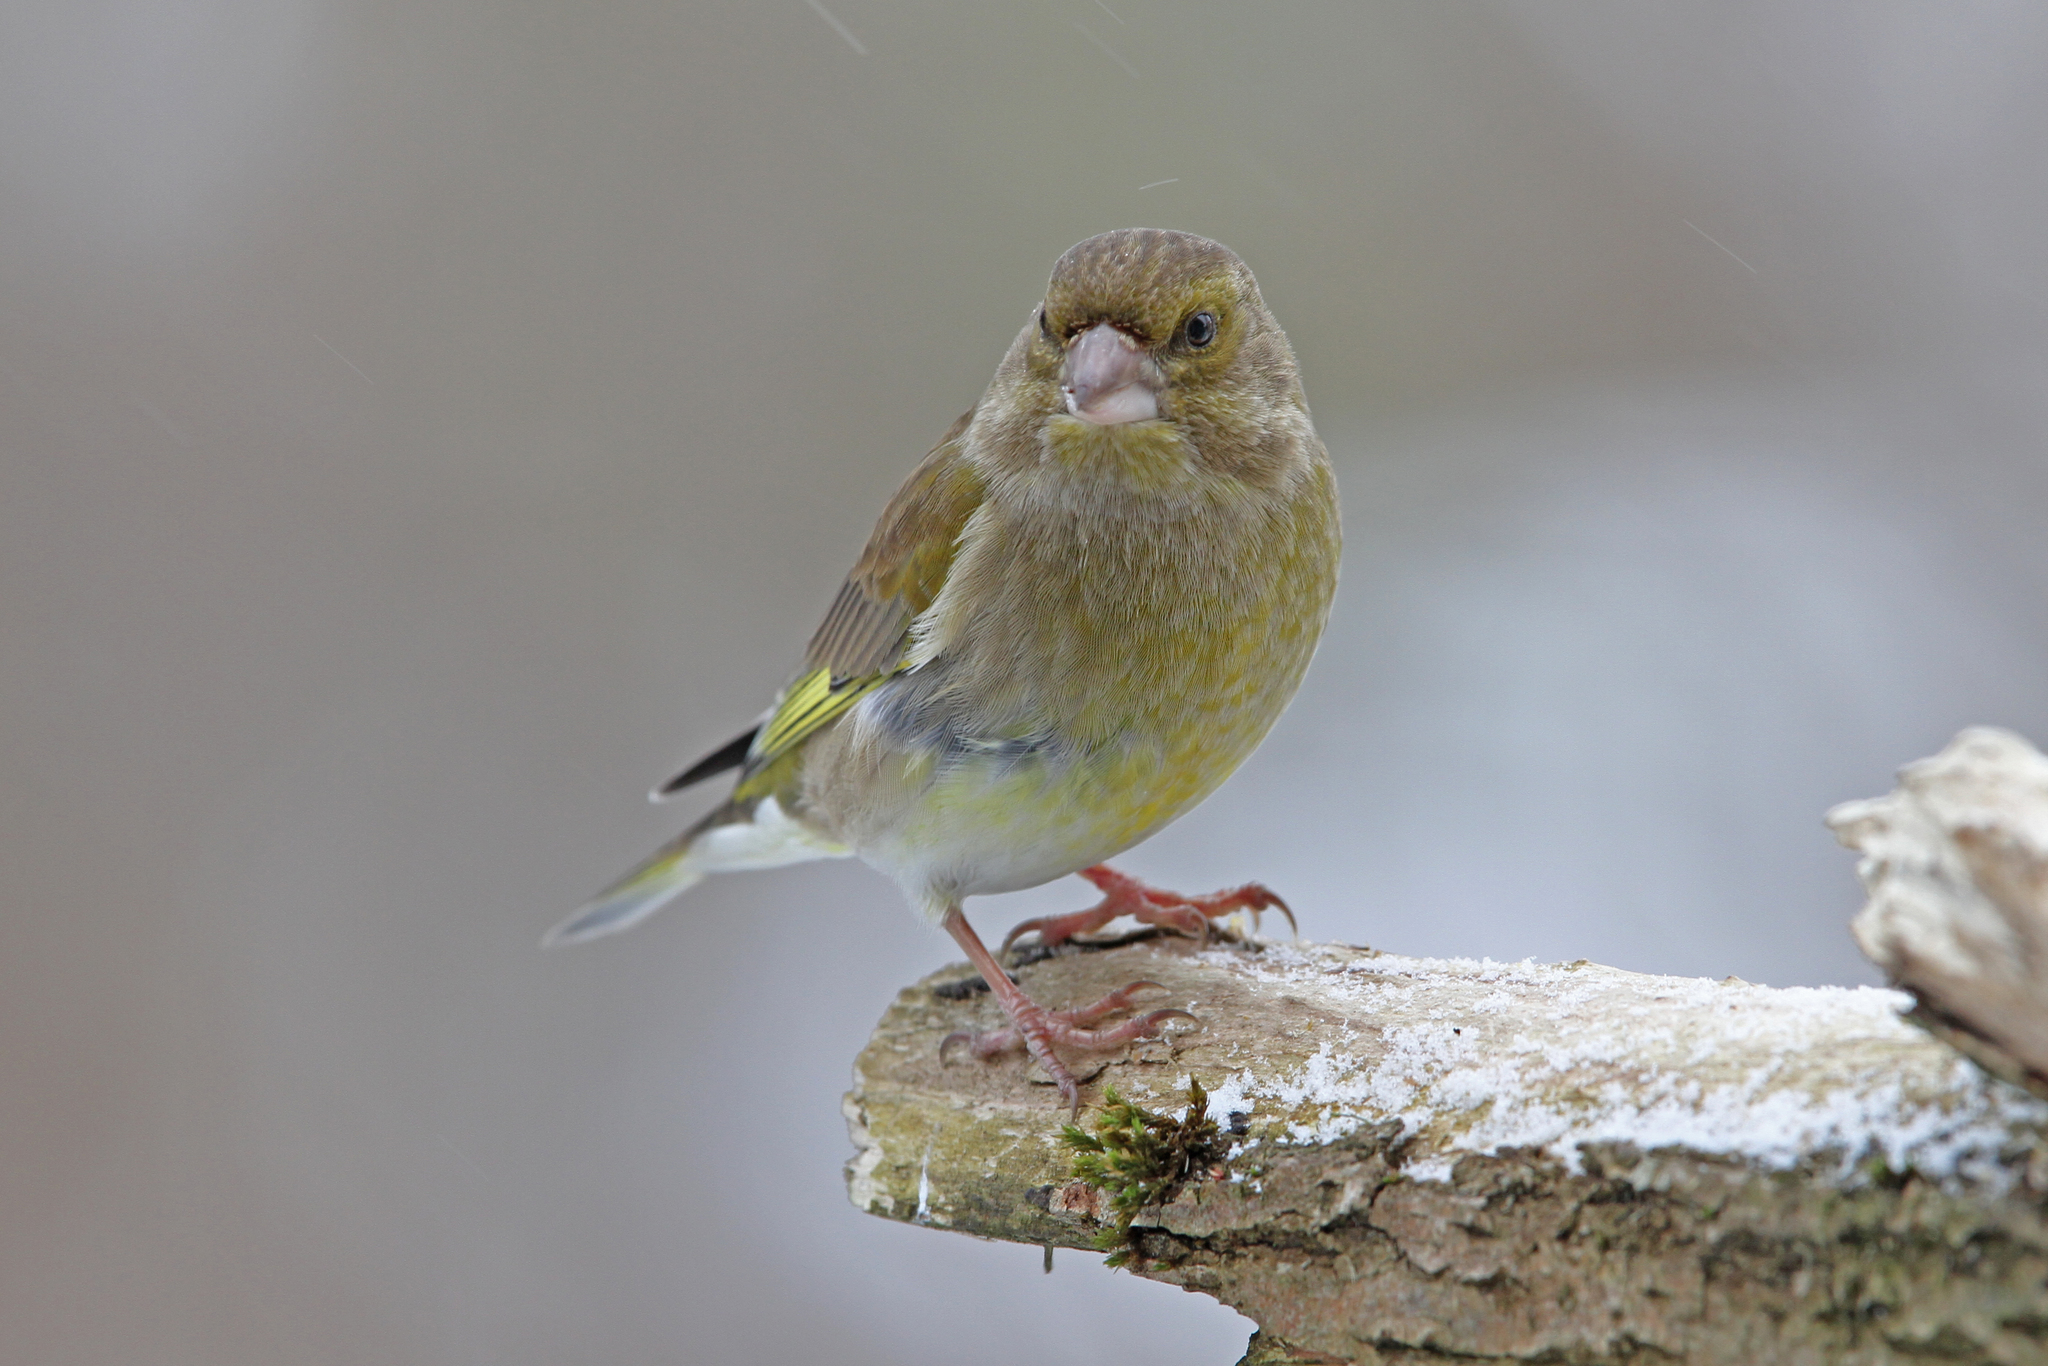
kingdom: Plantae
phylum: Tracheophyta
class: Liliopsida
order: Poales
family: Poaceae
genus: Chloris
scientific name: Chloris chloris
